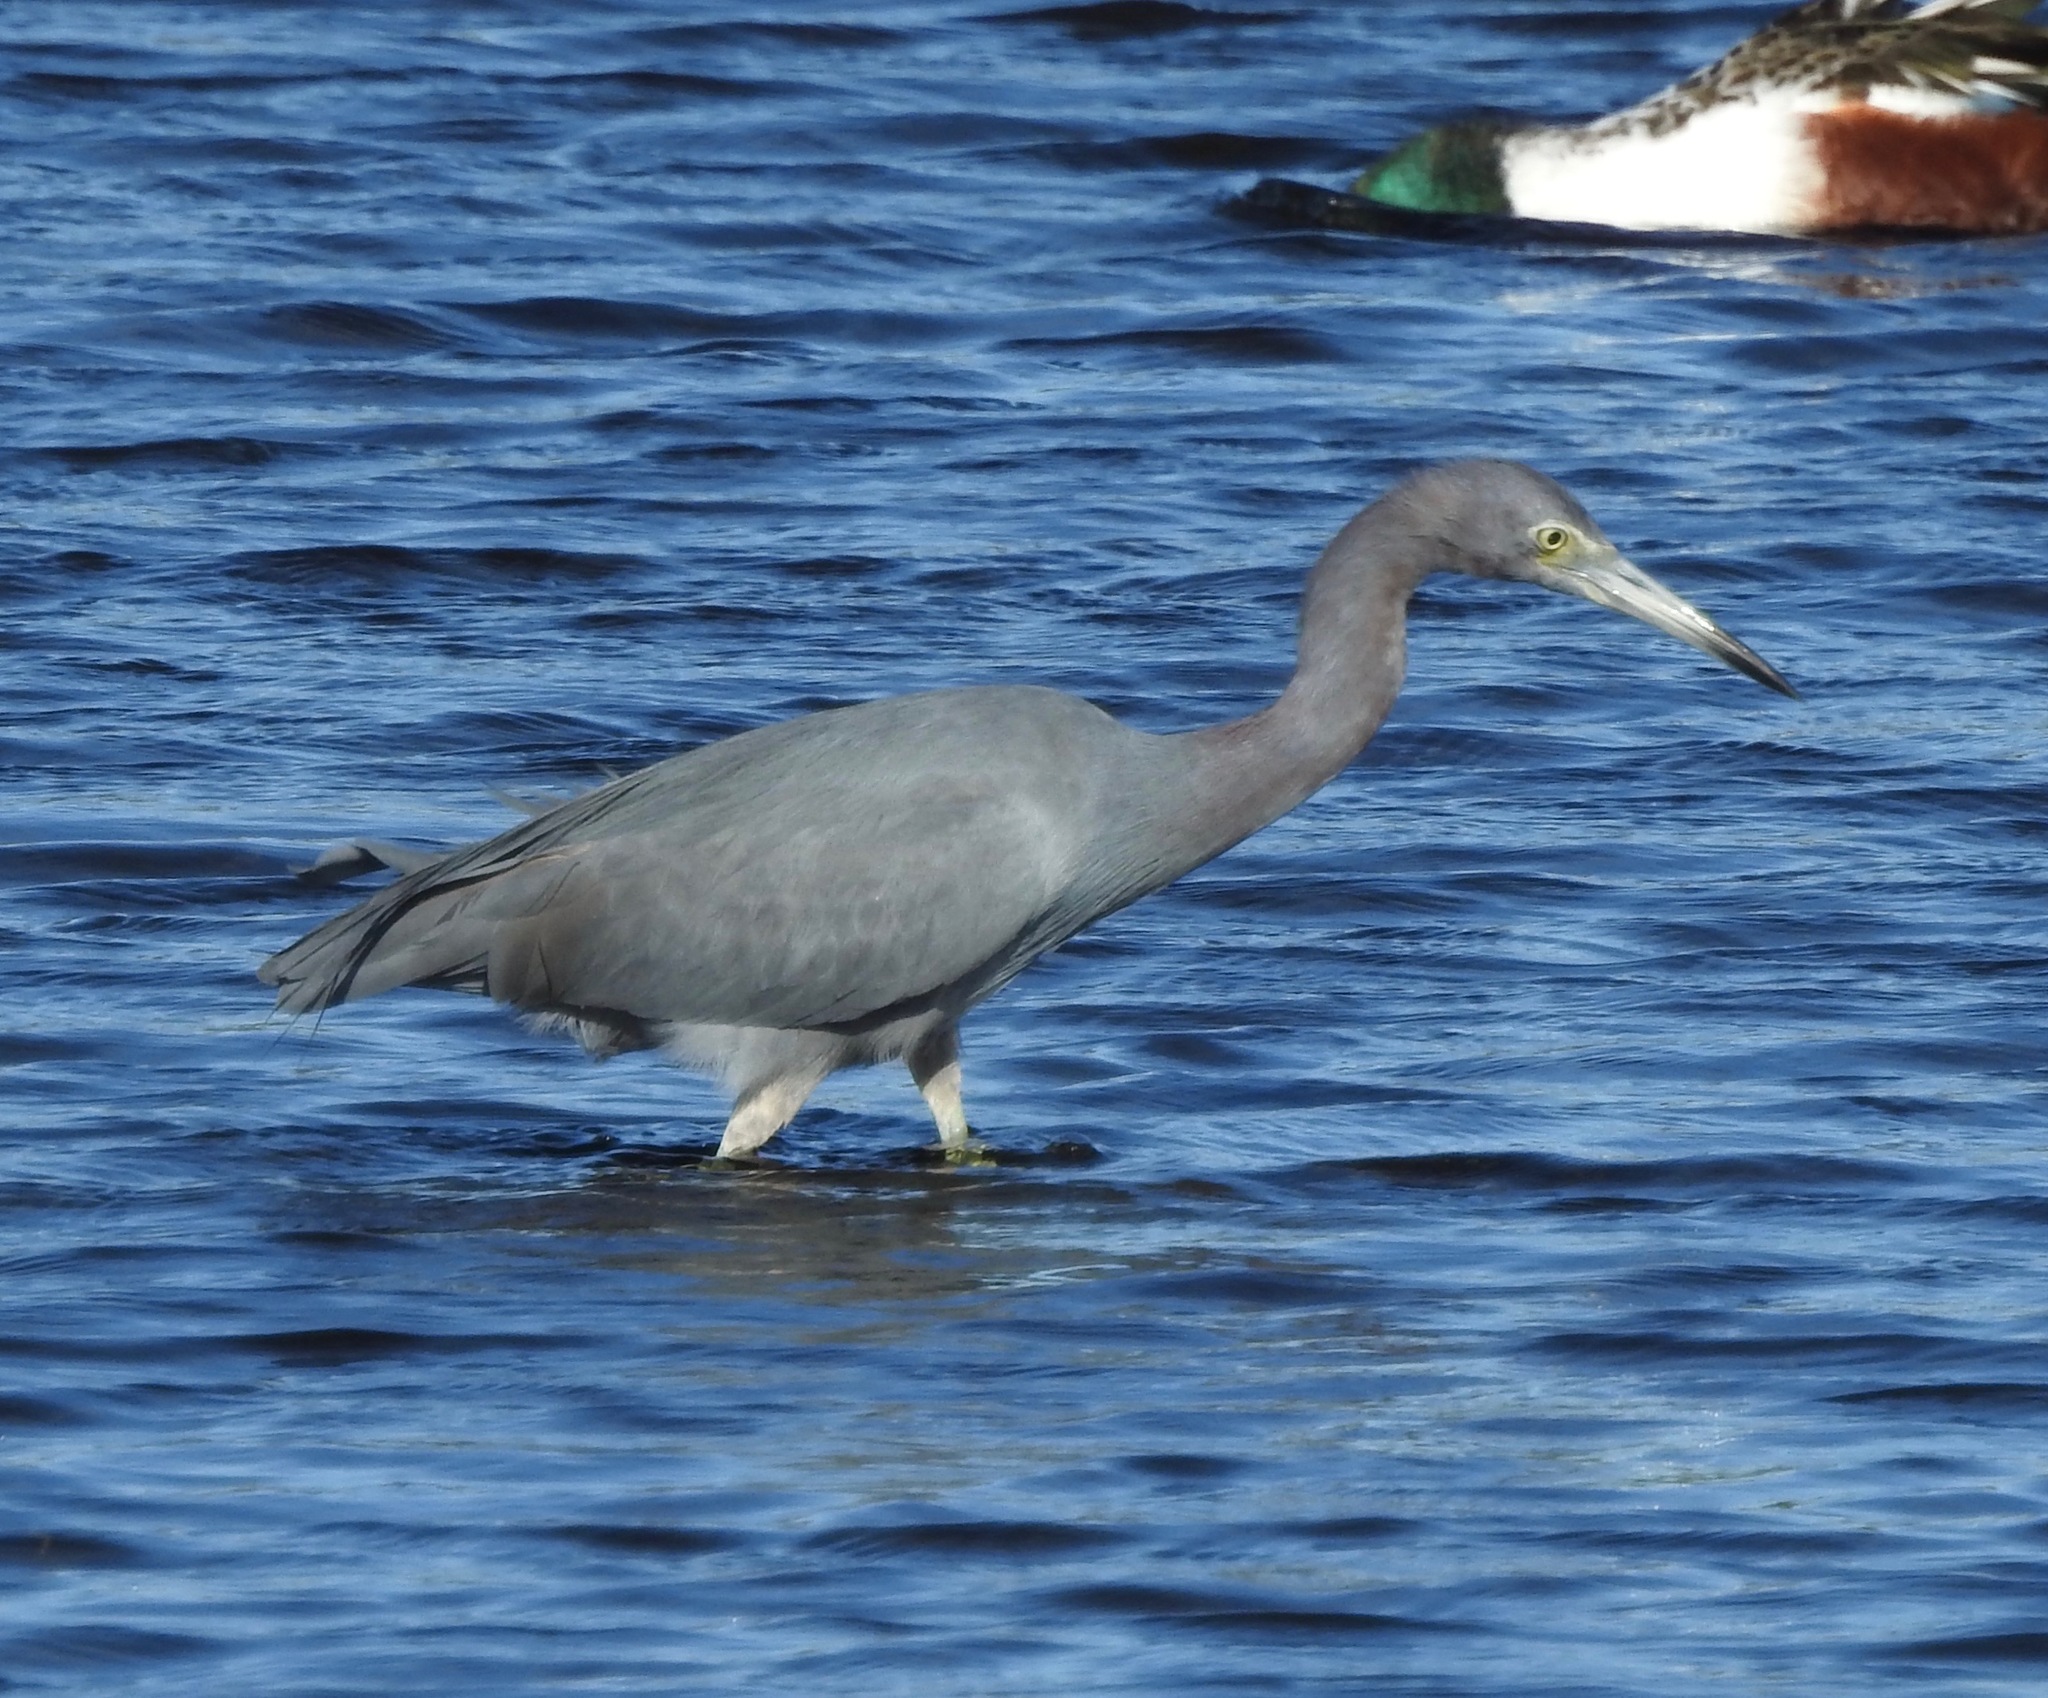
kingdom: Animalia
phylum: Chordata
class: Aves
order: Pelecaniformes
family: Ardeidae
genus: Egretta
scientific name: Egretta caerulea
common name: Little blue heron
